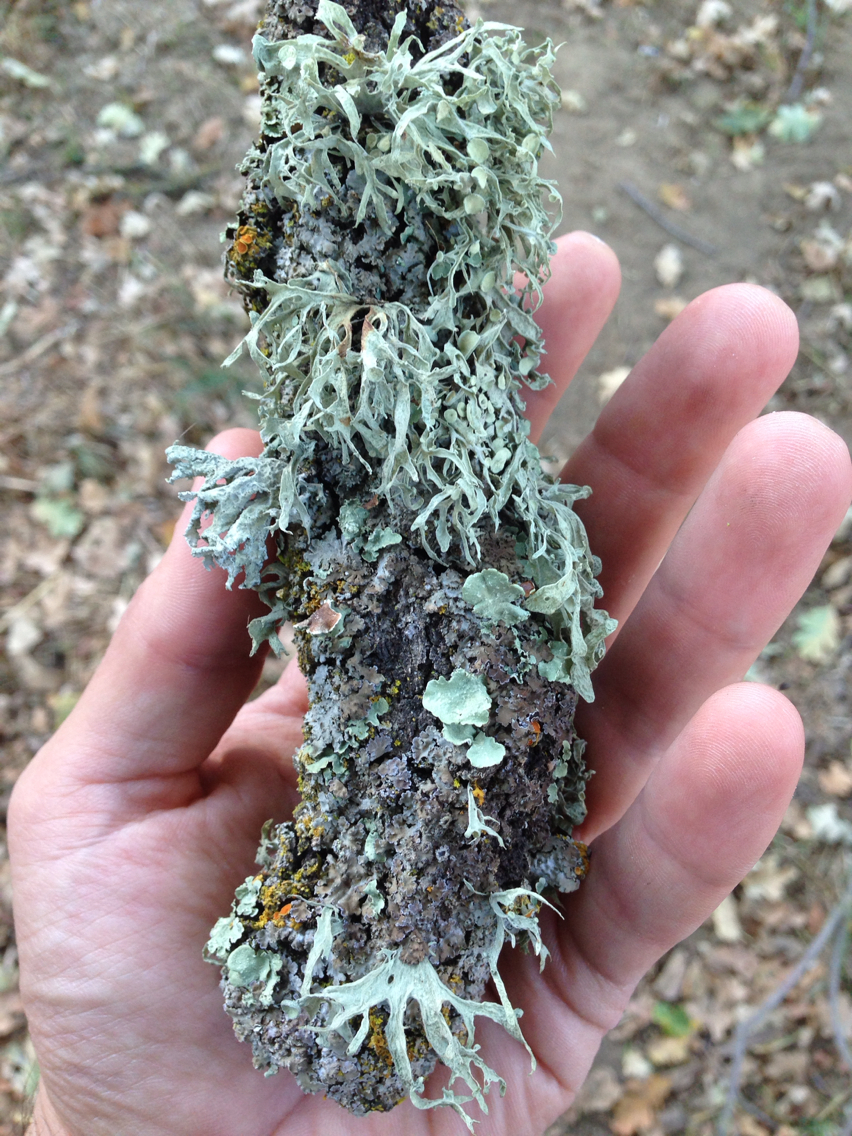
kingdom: Fungi
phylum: Ascomycota
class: Lecanoromycetes
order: Lecanorales
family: Ramalinaceae
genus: Ramalina
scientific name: Ramalina leptocarpha
